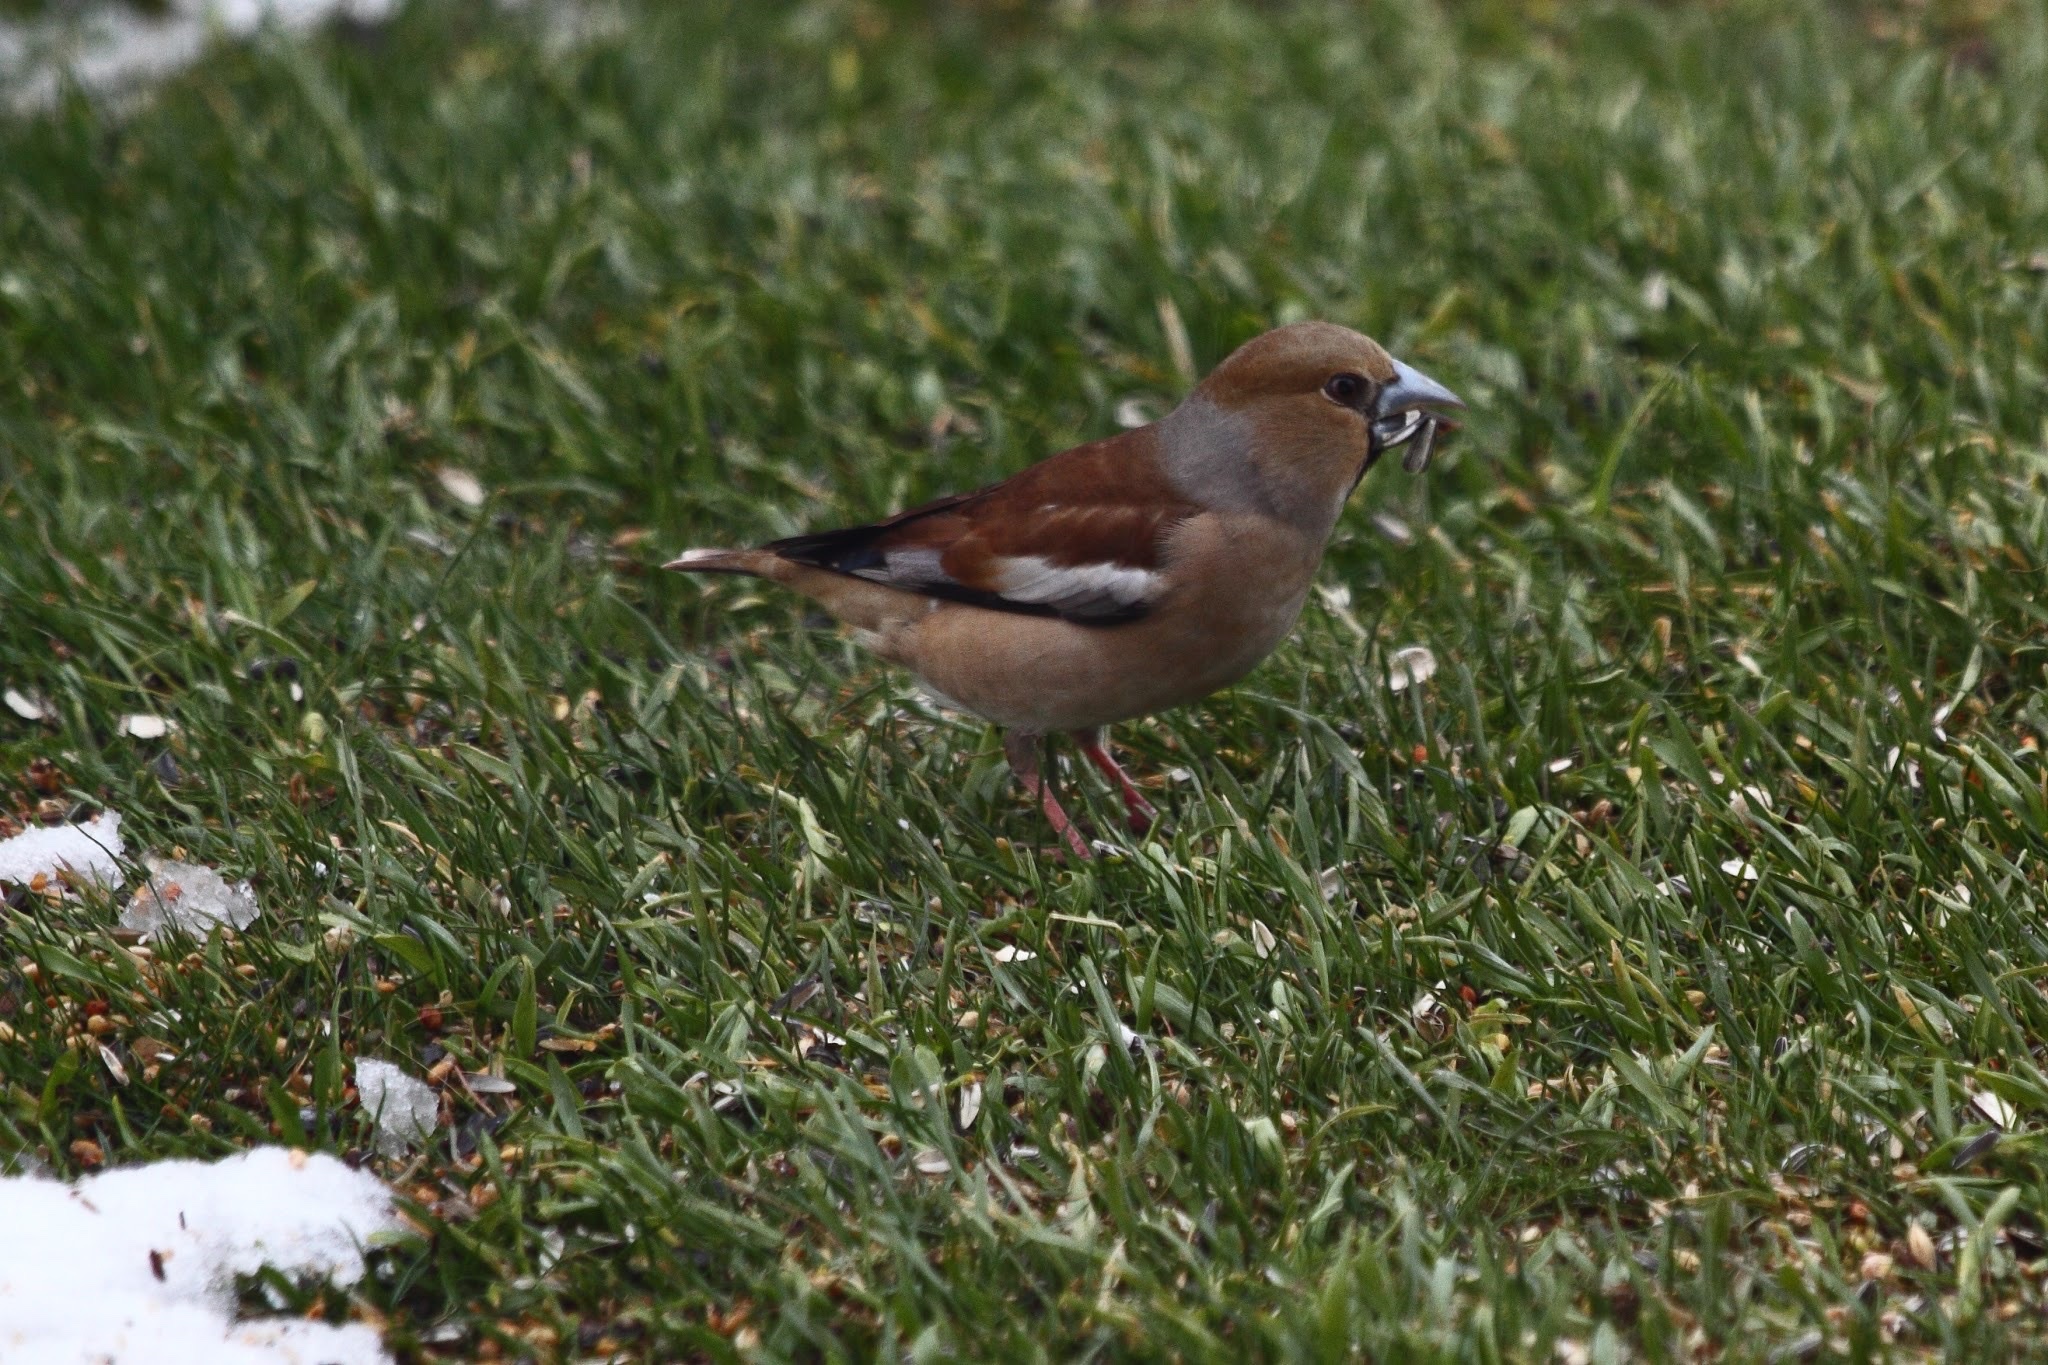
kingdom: Animalia
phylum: Chordata
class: Aves
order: Passeriformes
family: Fringillidae
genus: Coccothraustes
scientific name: Coccothraustes coccothraustes
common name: Hawfinch
